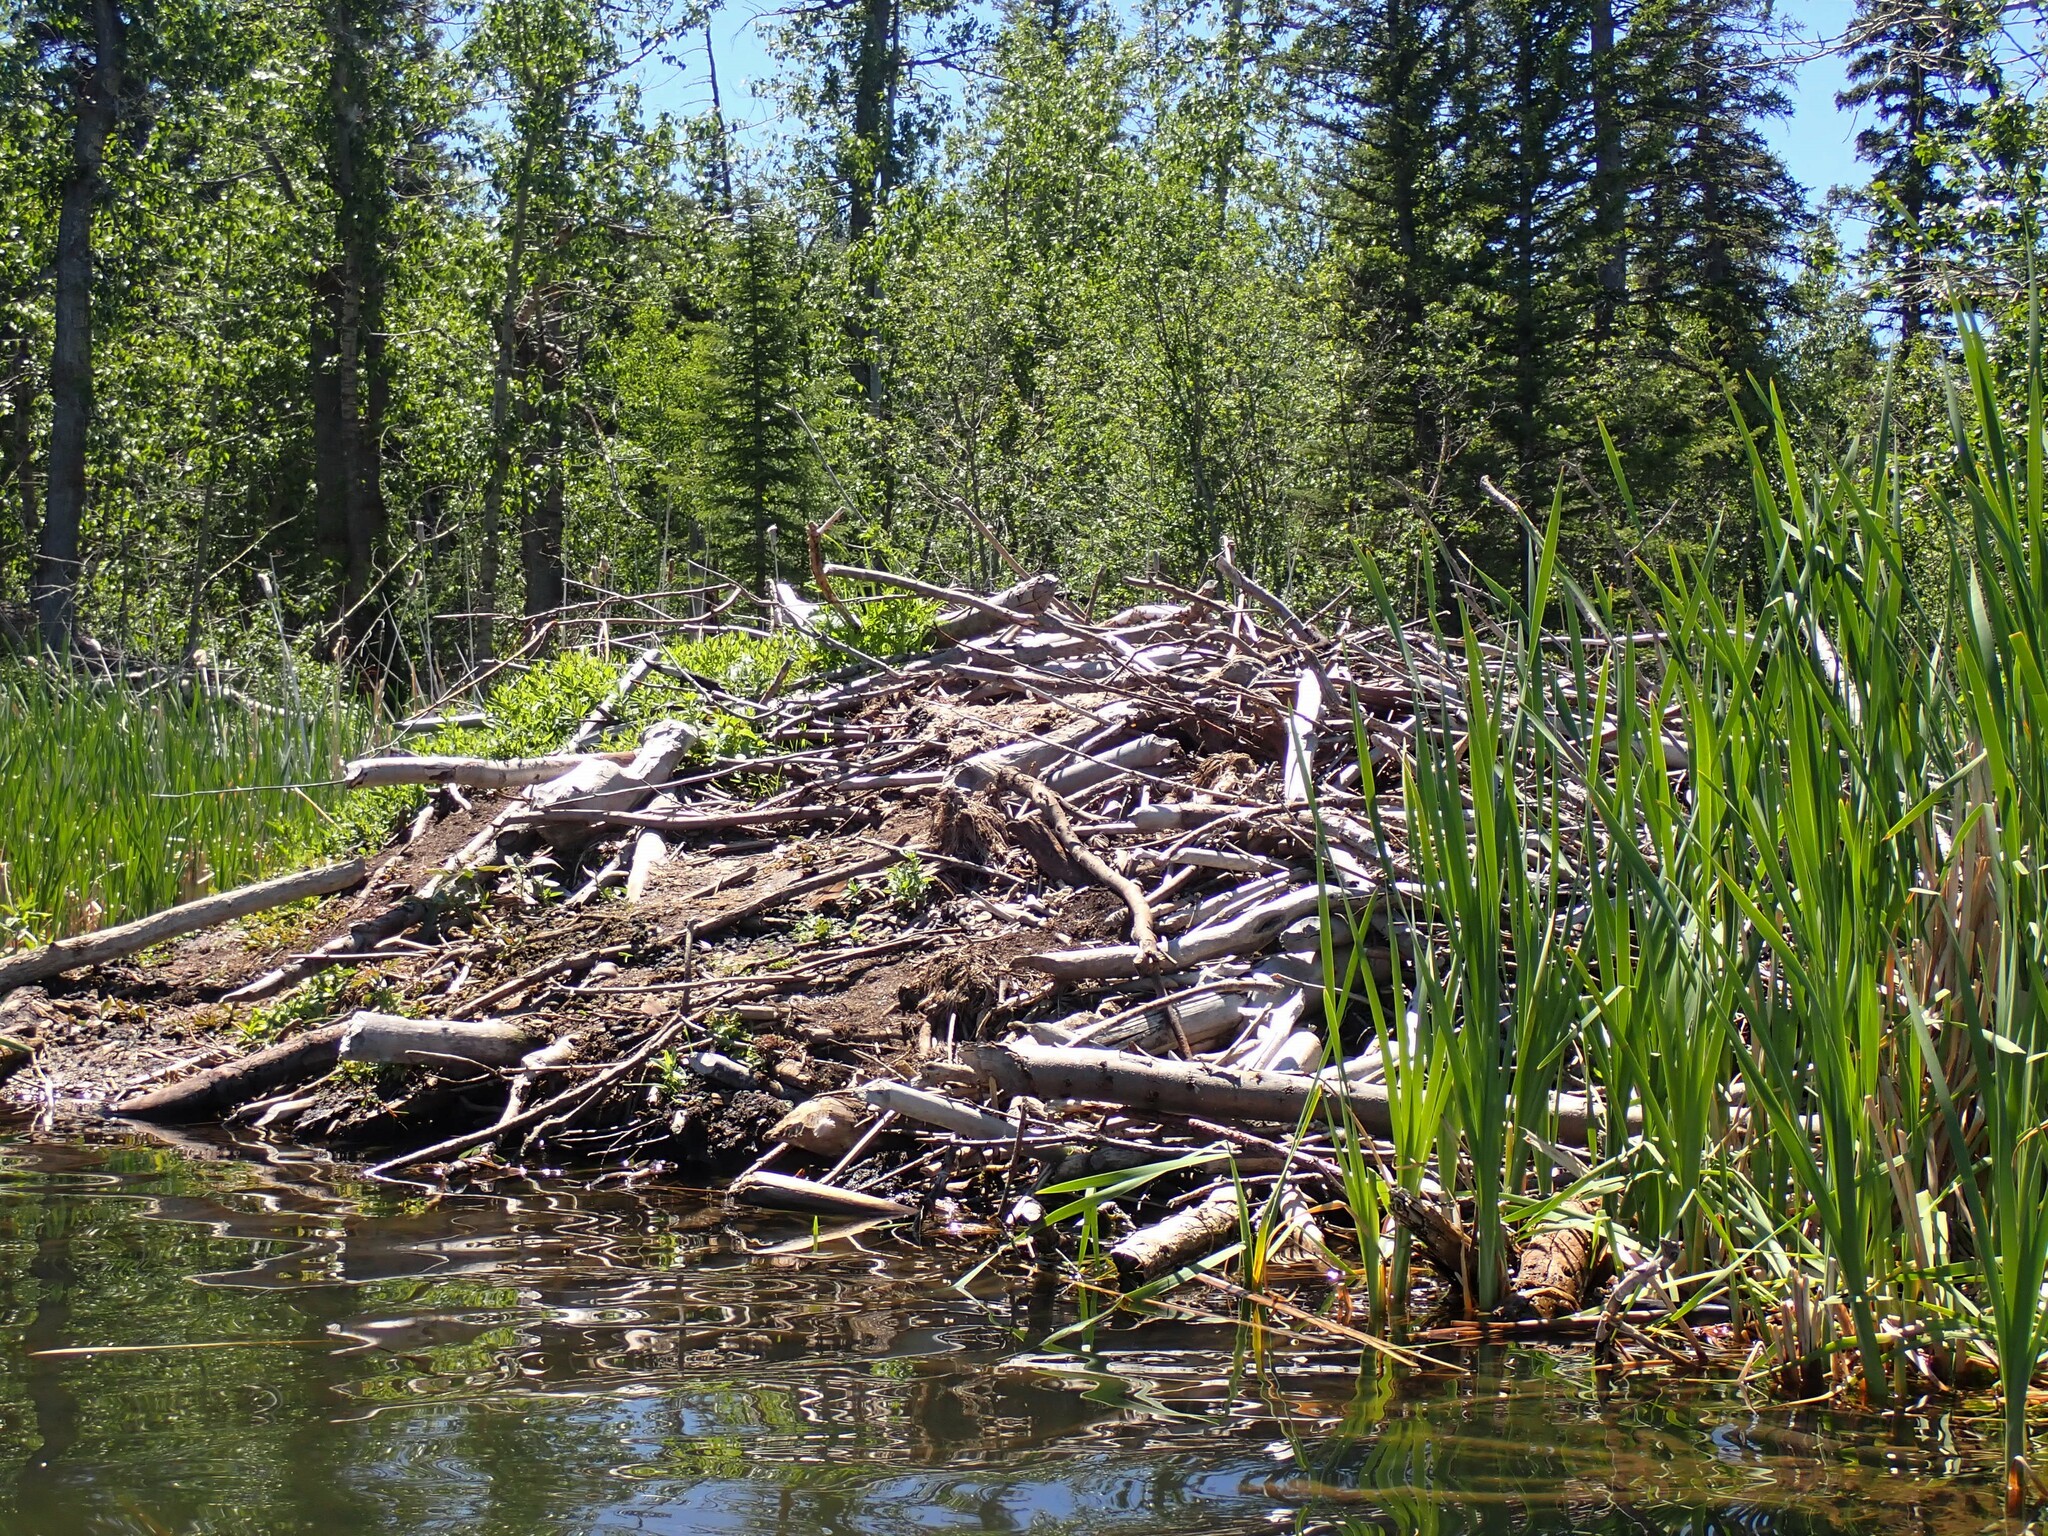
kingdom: Animalia
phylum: Chordata
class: Mammalia
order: Rodentia
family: Castoridae
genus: Castor
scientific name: Castor canadensis
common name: American beaver
